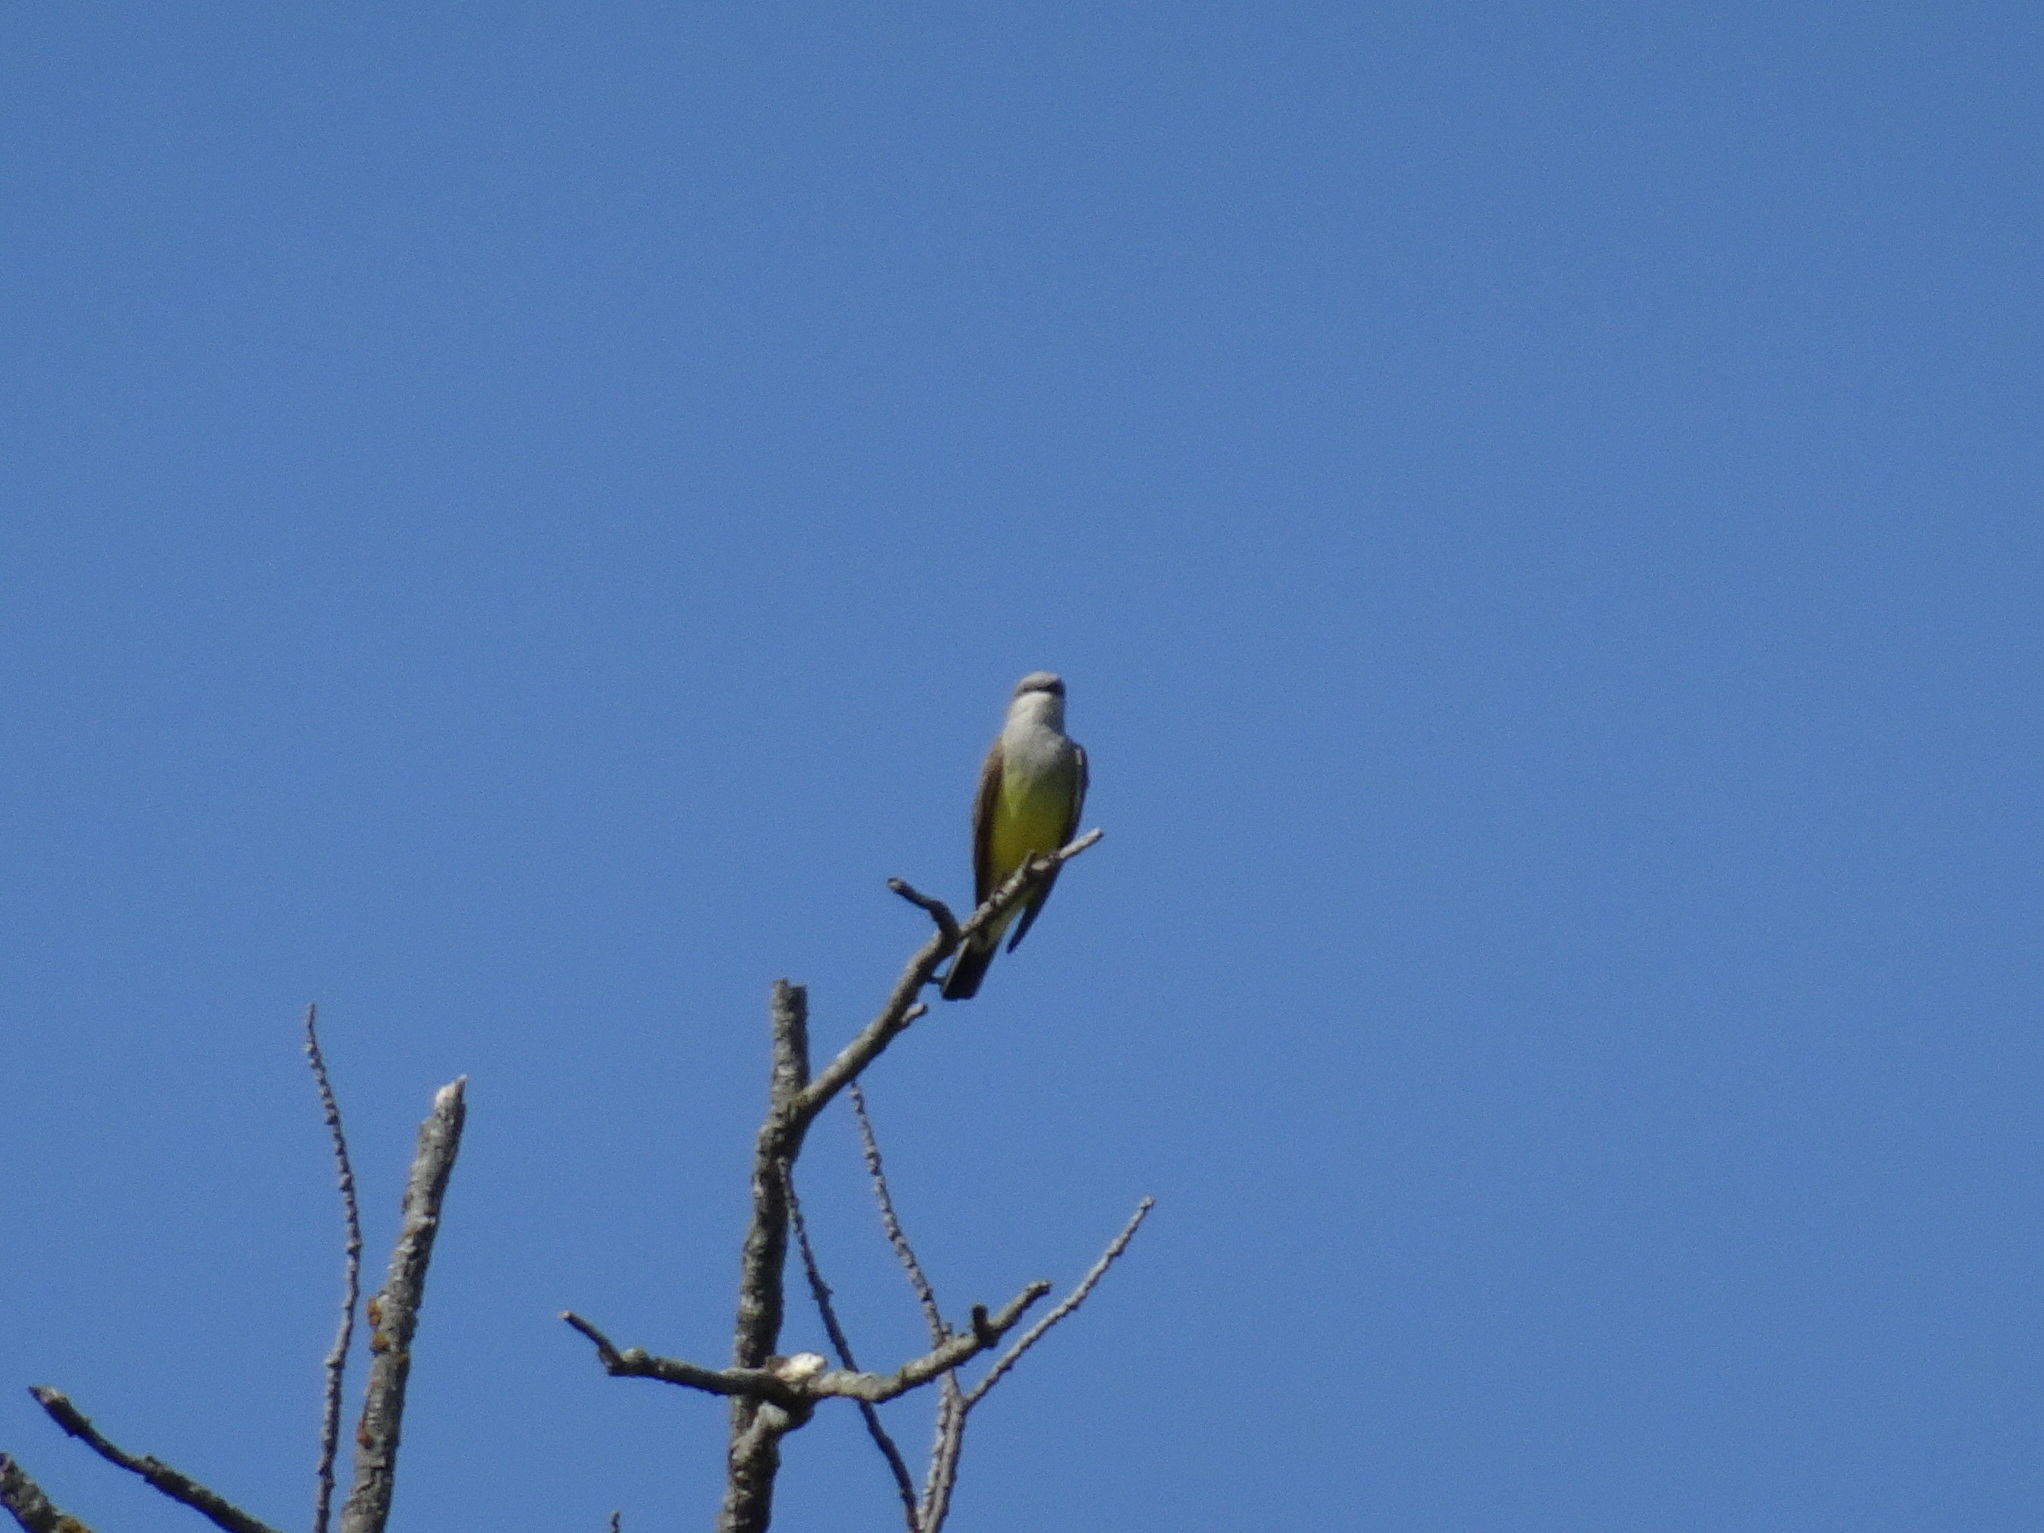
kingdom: Animalia
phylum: Chordata
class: Aves
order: Passeriformes
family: Tyrannidae
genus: Tyrannus
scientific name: Tyrannus verticalis
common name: Western kingbird
